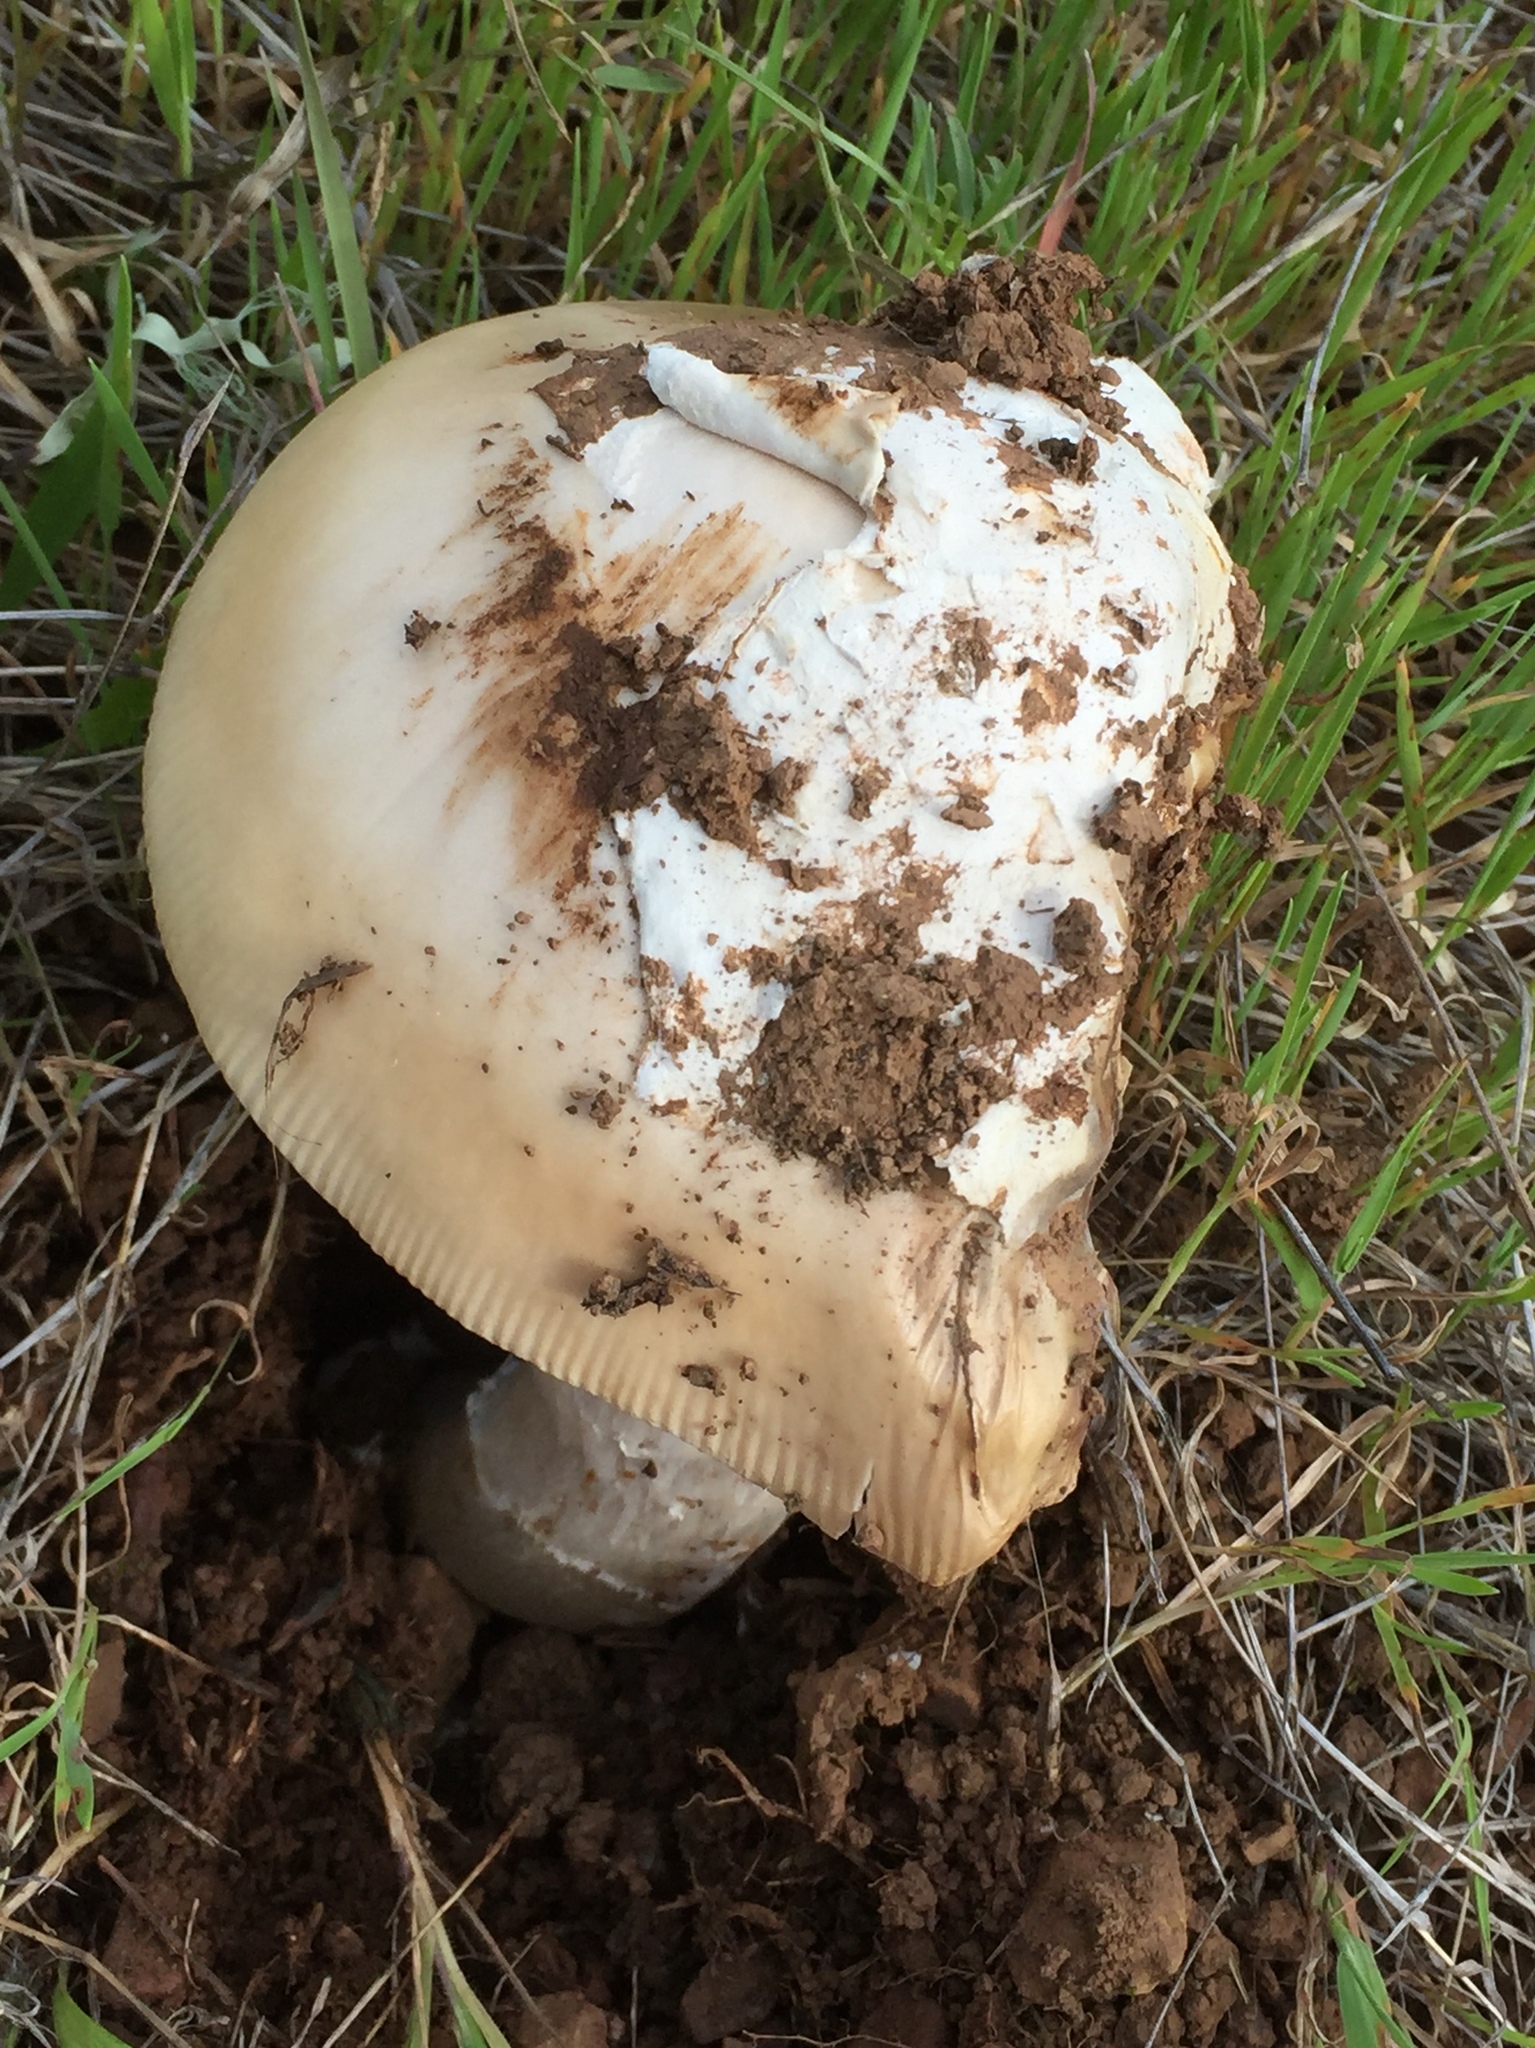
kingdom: Fungi
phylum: Basidiomycota
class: Agaricomycetes
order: Agaricales
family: Amanitaceae
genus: Amanita
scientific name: Amanita velosa
